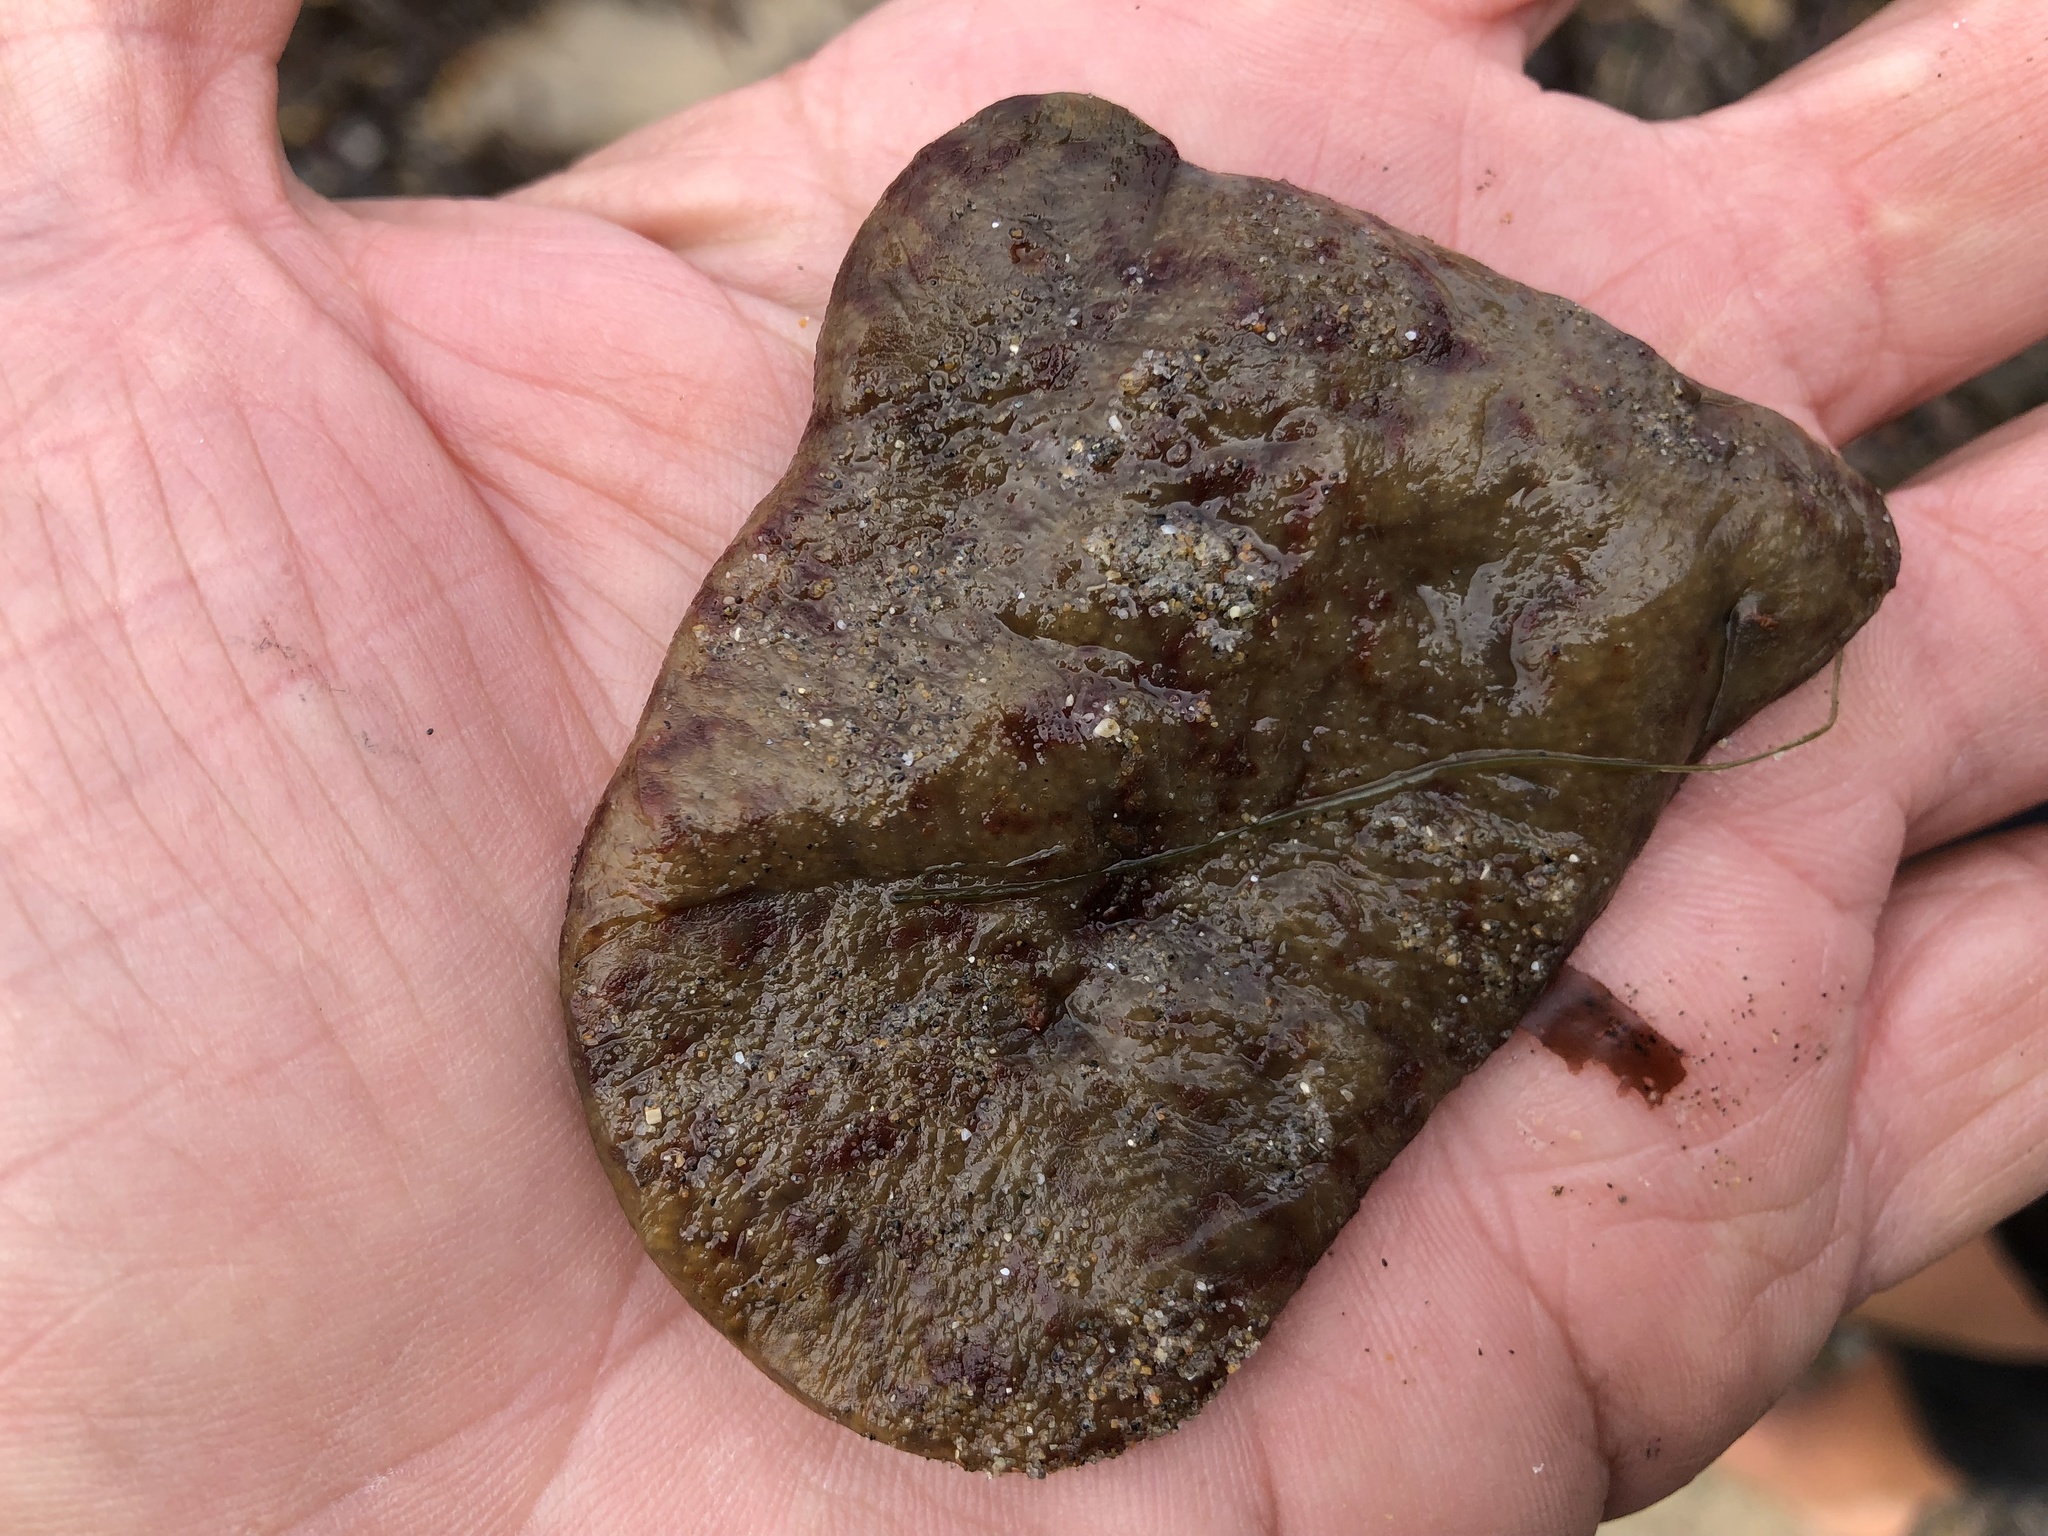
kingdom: Animalia
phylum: Chordata
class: Ascidiacea
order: Aplousobranchia
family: Polyclinidae
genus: Aplidium
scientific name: Aplidium californicum
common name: Sea pork
